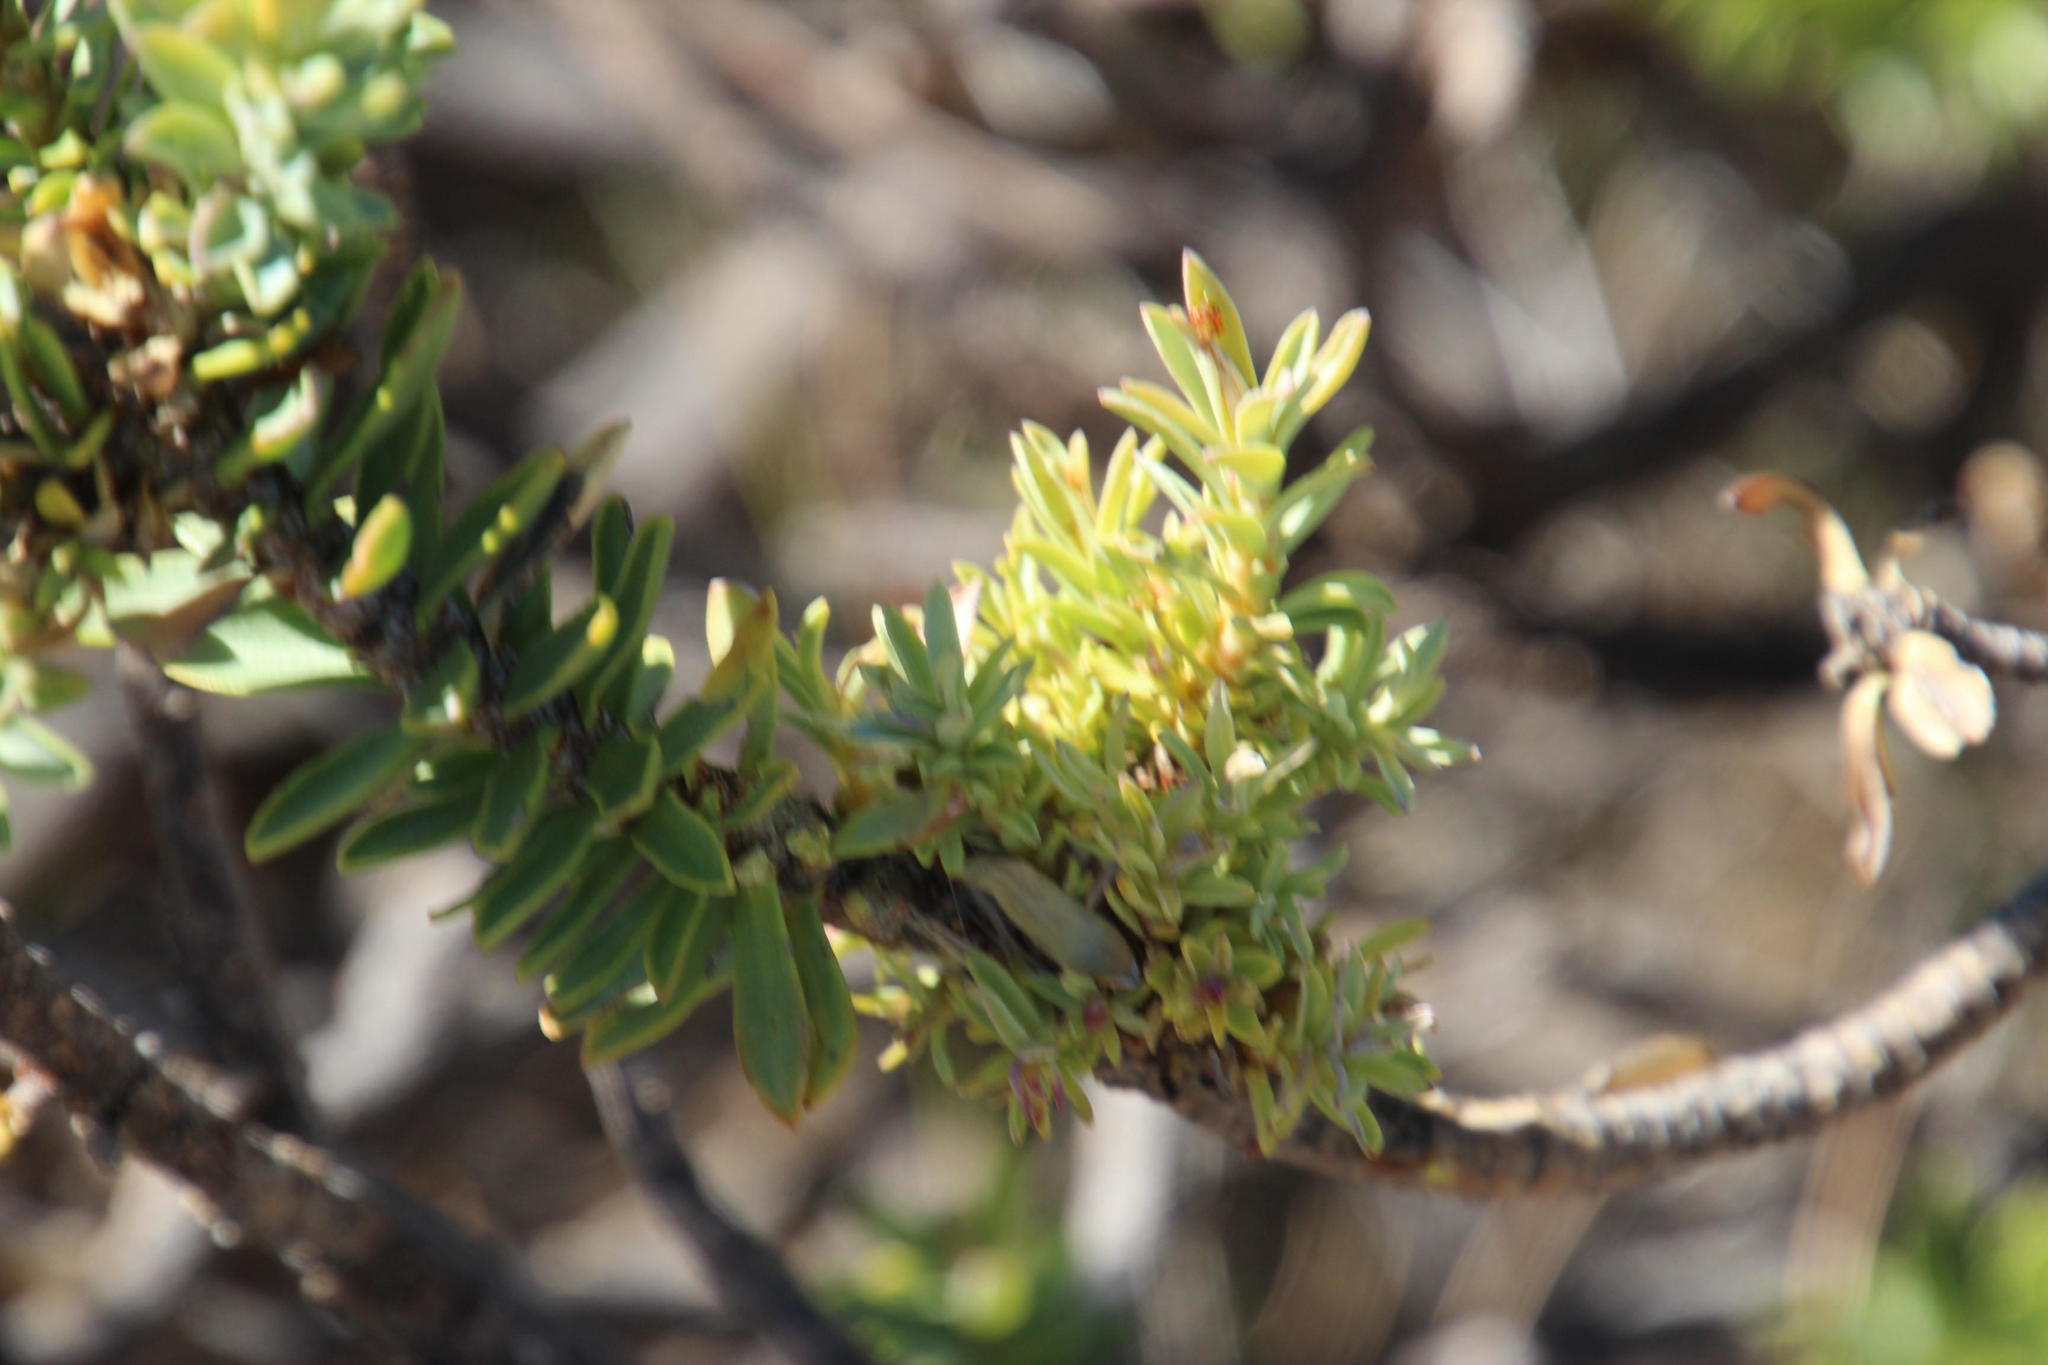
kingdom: Plantae
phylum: Tracheophyta
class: Magnoliopsida
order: Asterales
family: Asteraceae
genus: Euryops
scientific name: Euryops lateriflorus
